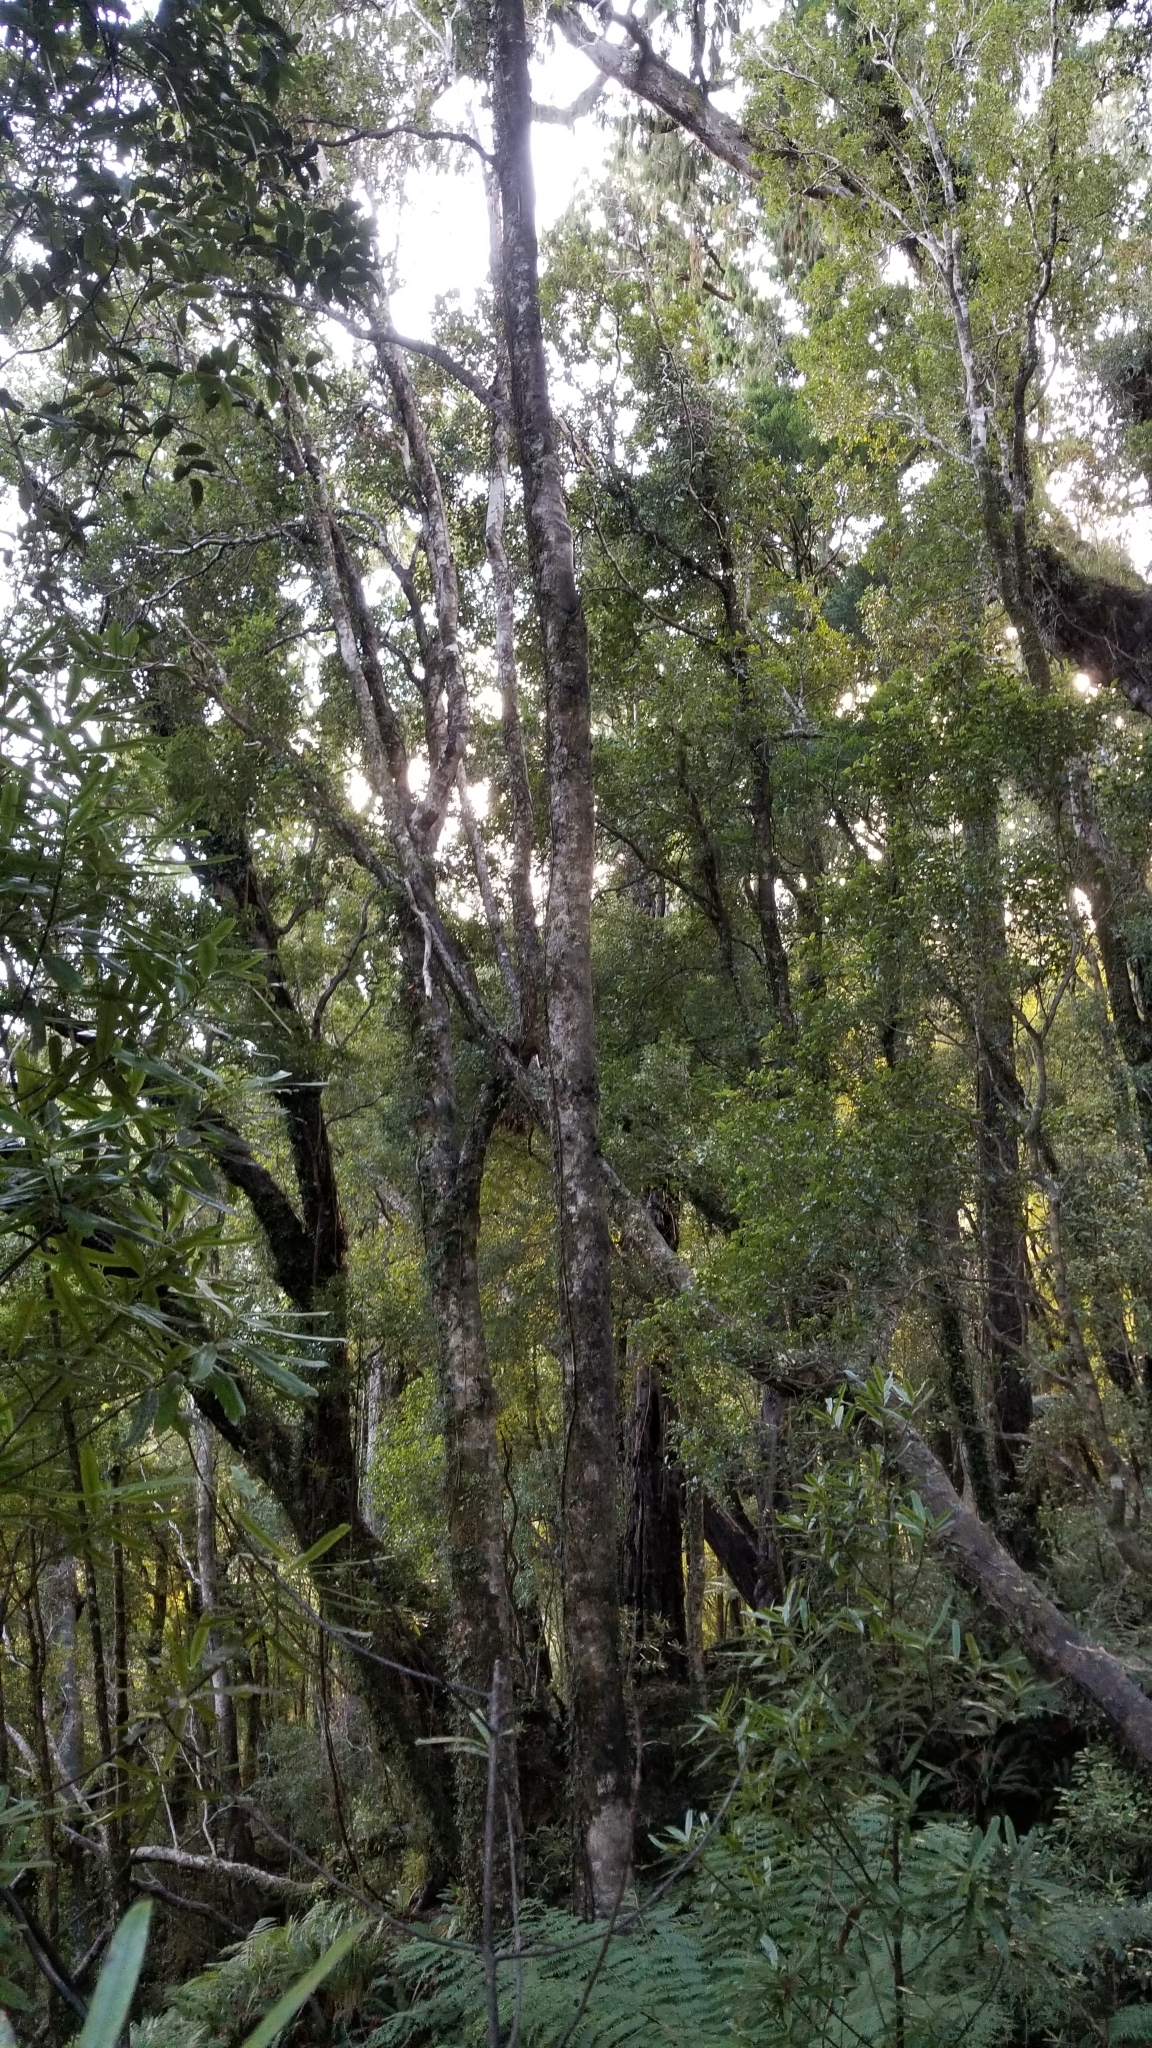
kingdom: Animalia
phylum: Chordata
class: Aves
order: Passeriformes
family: Acanthisittidae
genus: Acanthisitta
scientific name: Acanthisitta chloris
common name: Rifleman
